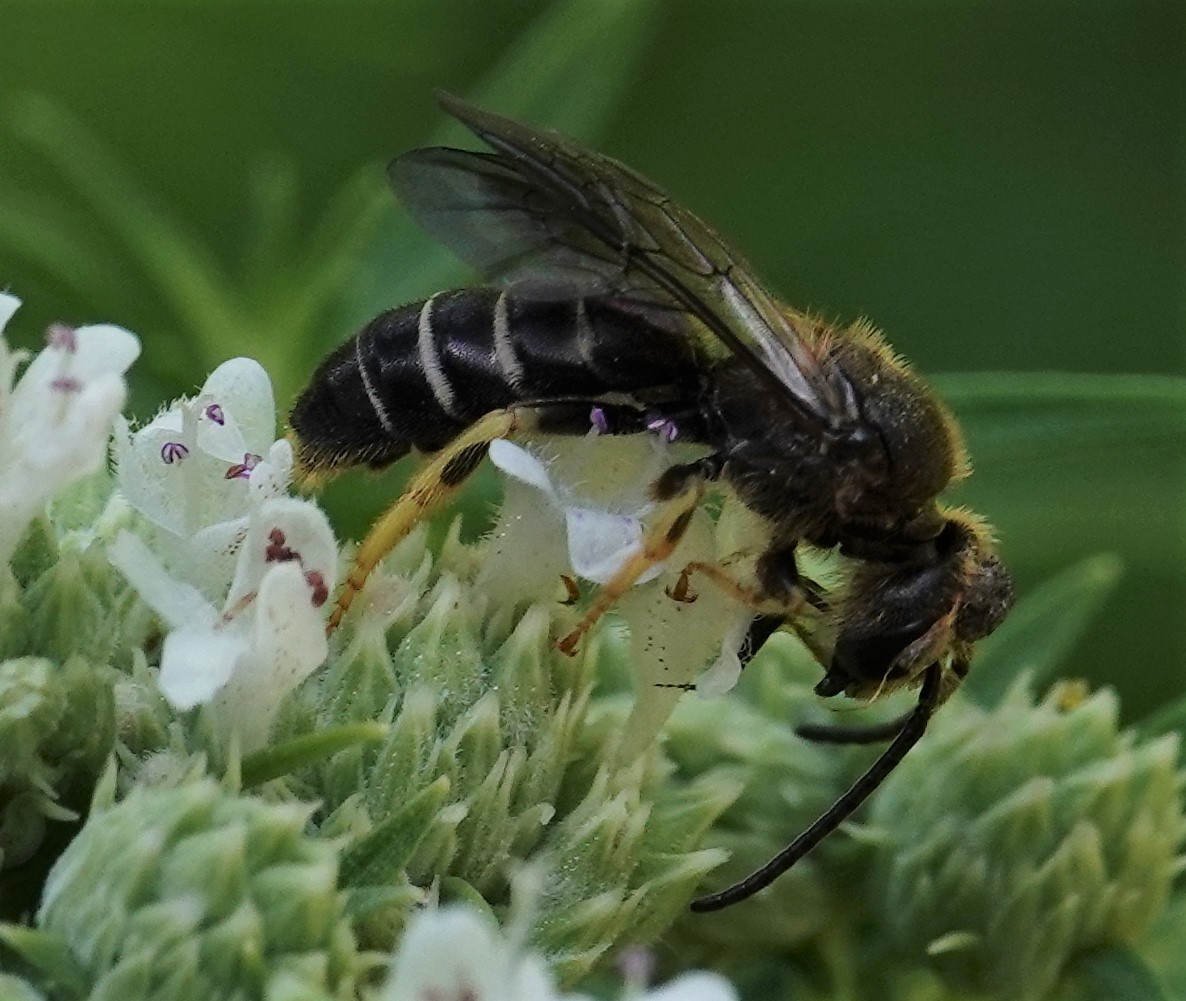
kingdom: Animalia
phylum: Arthropoda
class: Insecta
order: Hymenoptera
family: Halictidae
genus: Halictus
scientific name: Halictus rubicundus
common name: Orange-legged furrow bee
